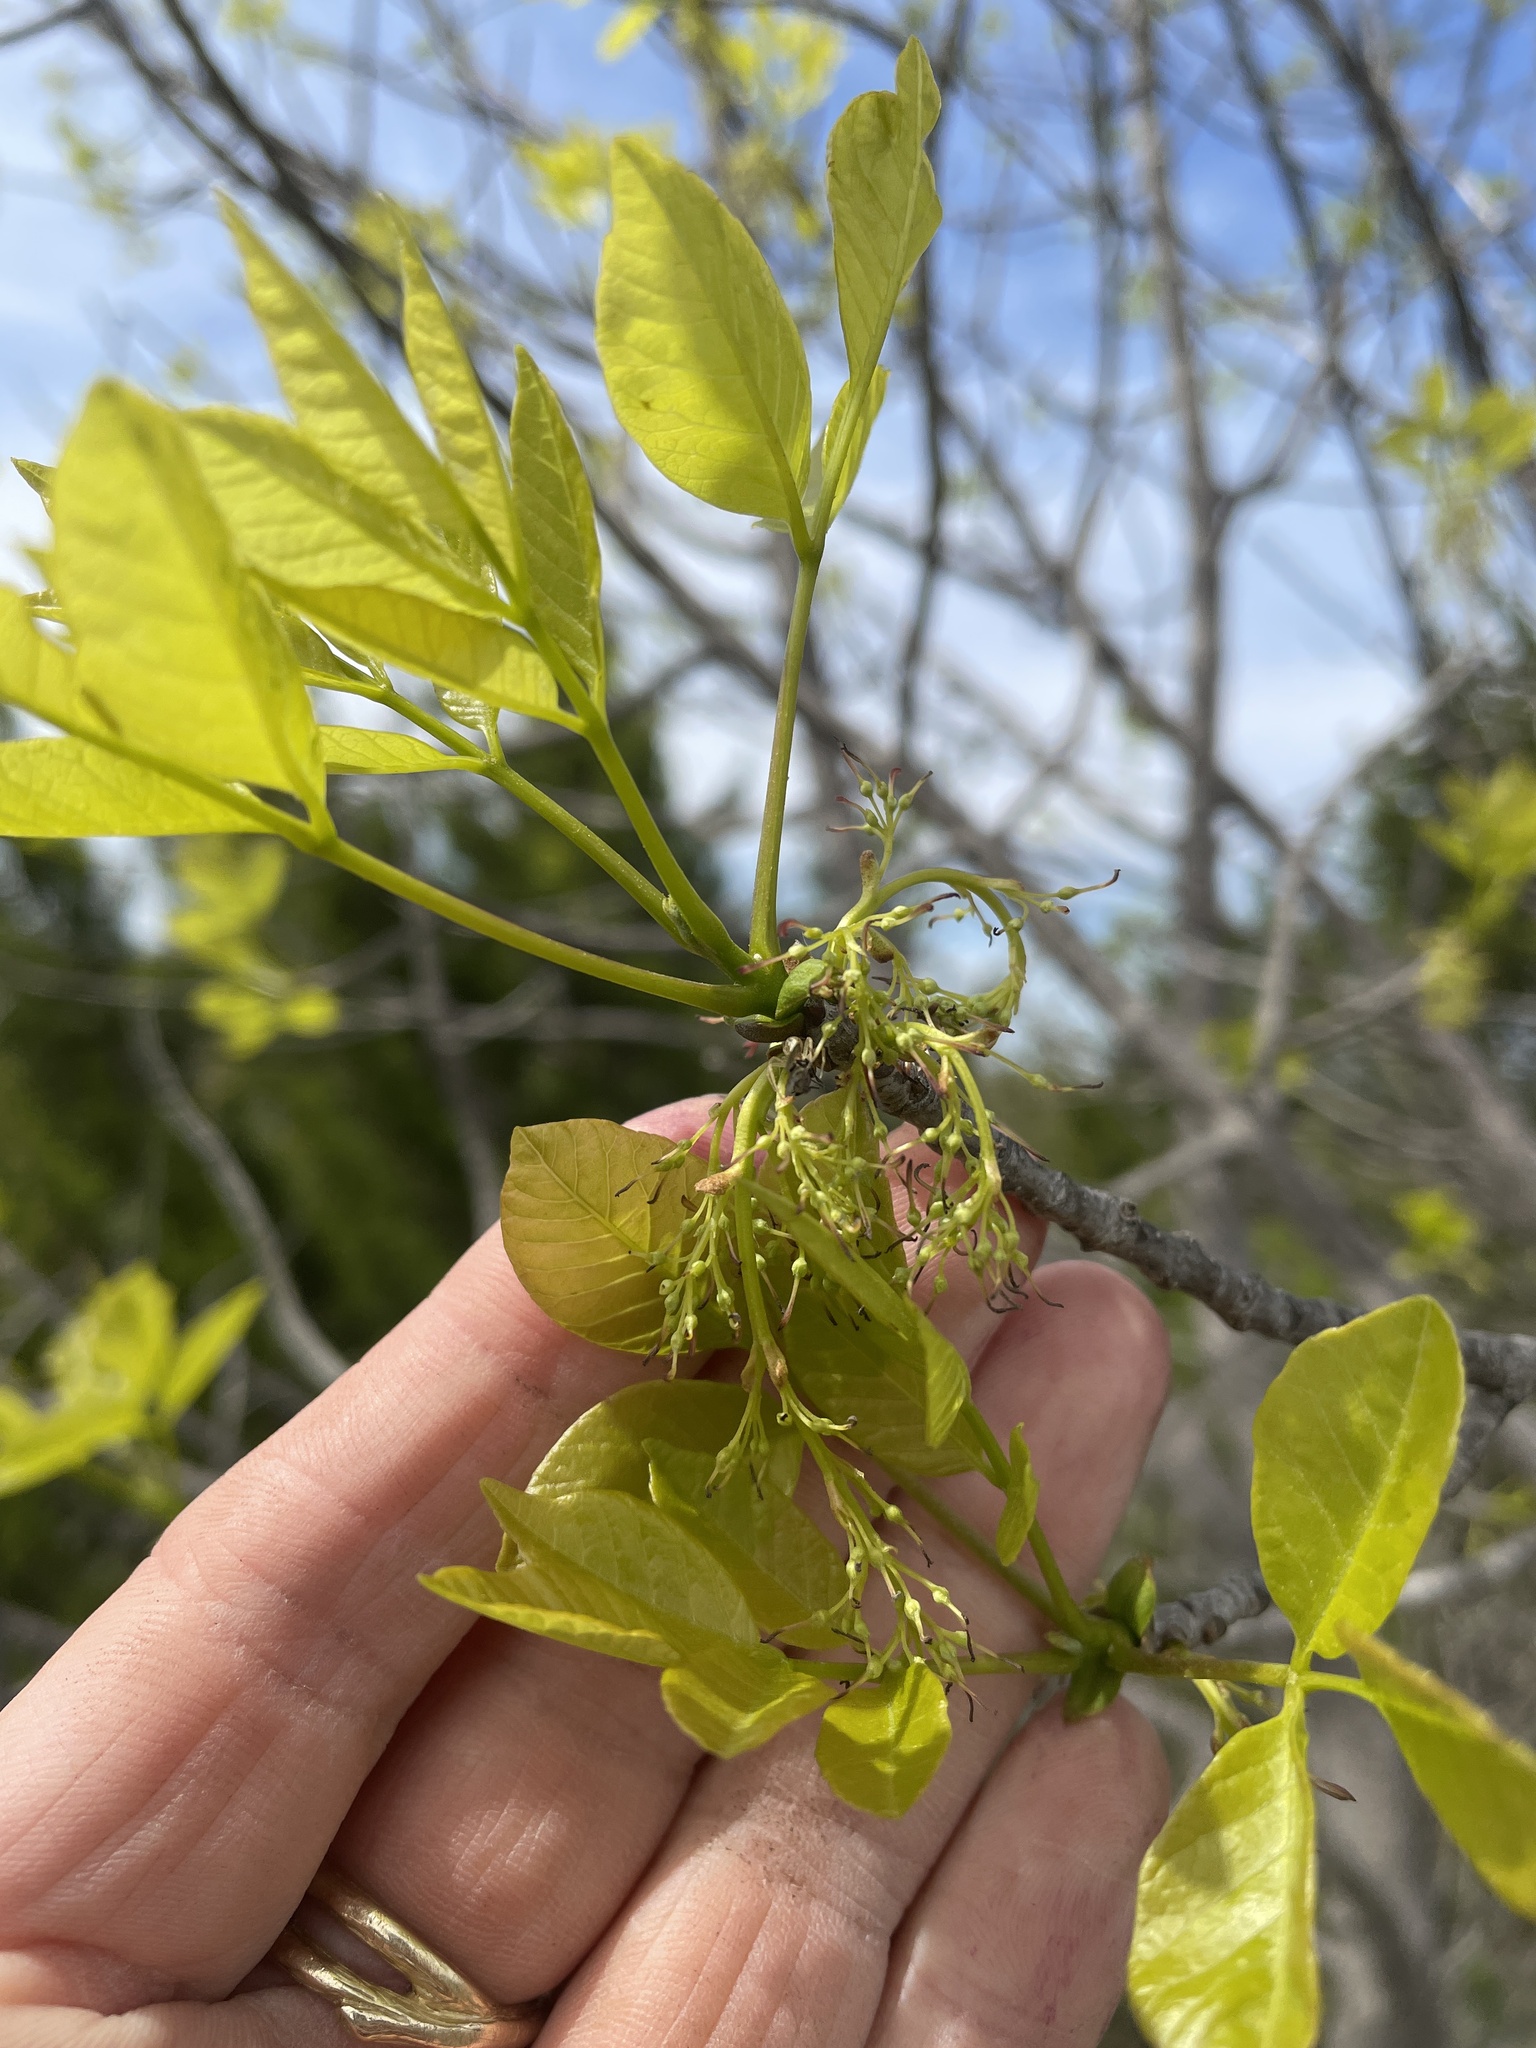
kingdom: Plantae
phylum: Tracheophyta
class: Magnoliopsida
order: Lamiales
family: Oleaceae
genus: Fraxinus
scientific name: Fraxinus albicans
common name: Texas ash
